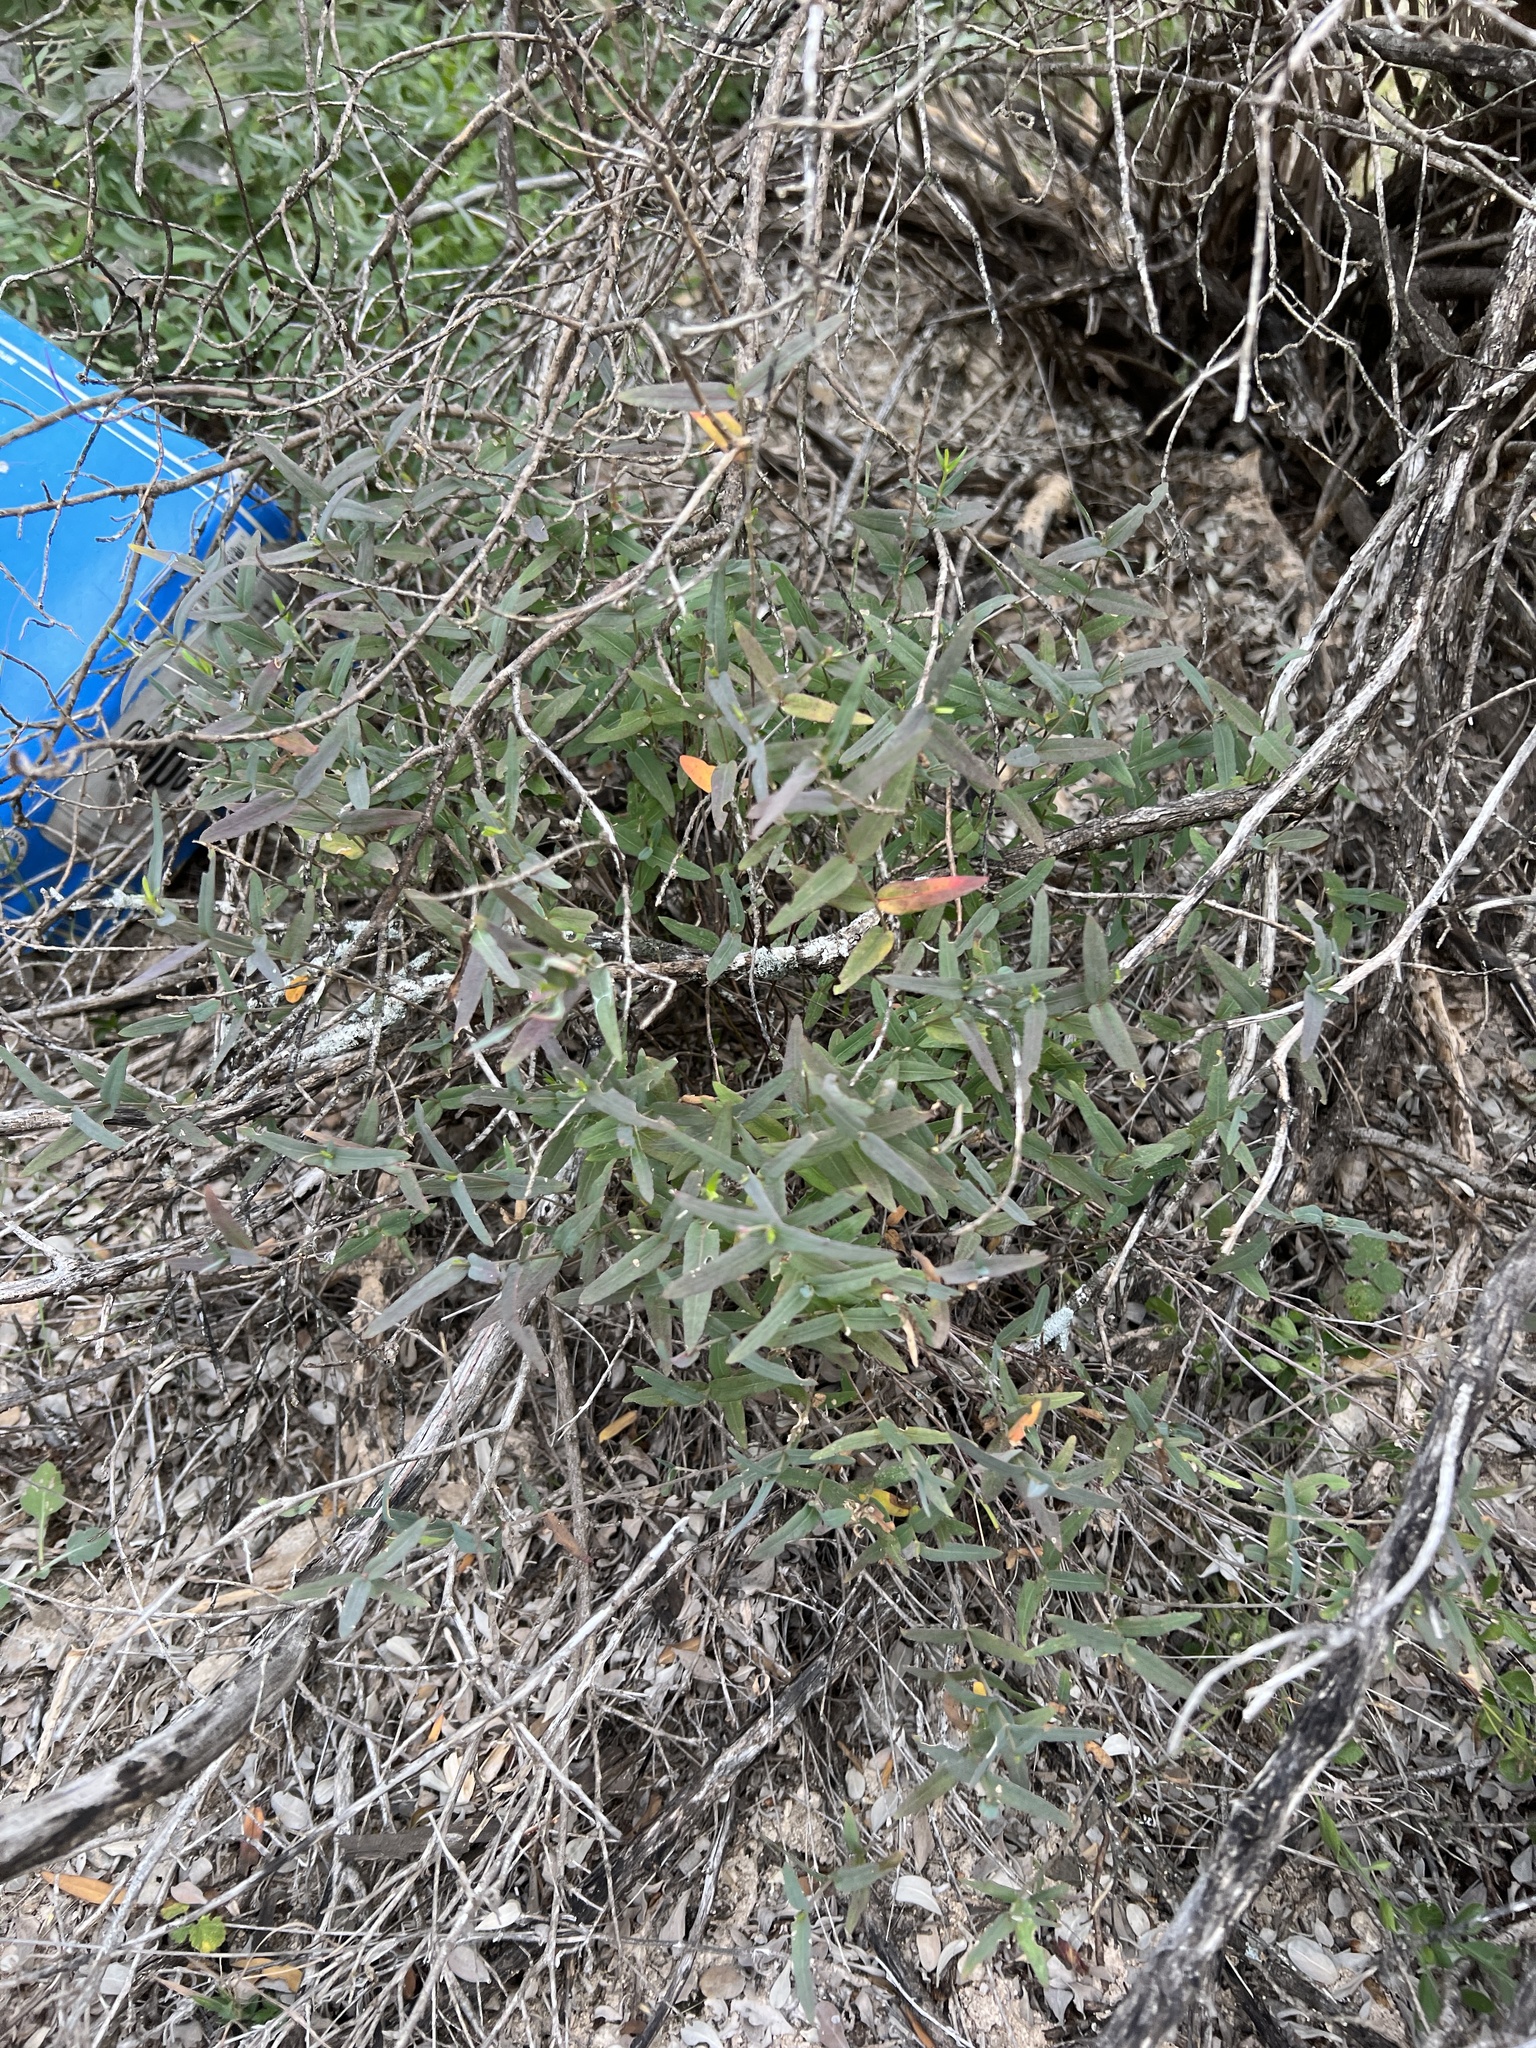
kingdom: Plantae
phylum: Tracheophyta
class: Magnoliopsida
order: Asterales
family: Asteraceae
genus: Brickellia
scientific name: Brickellia cylindracea
